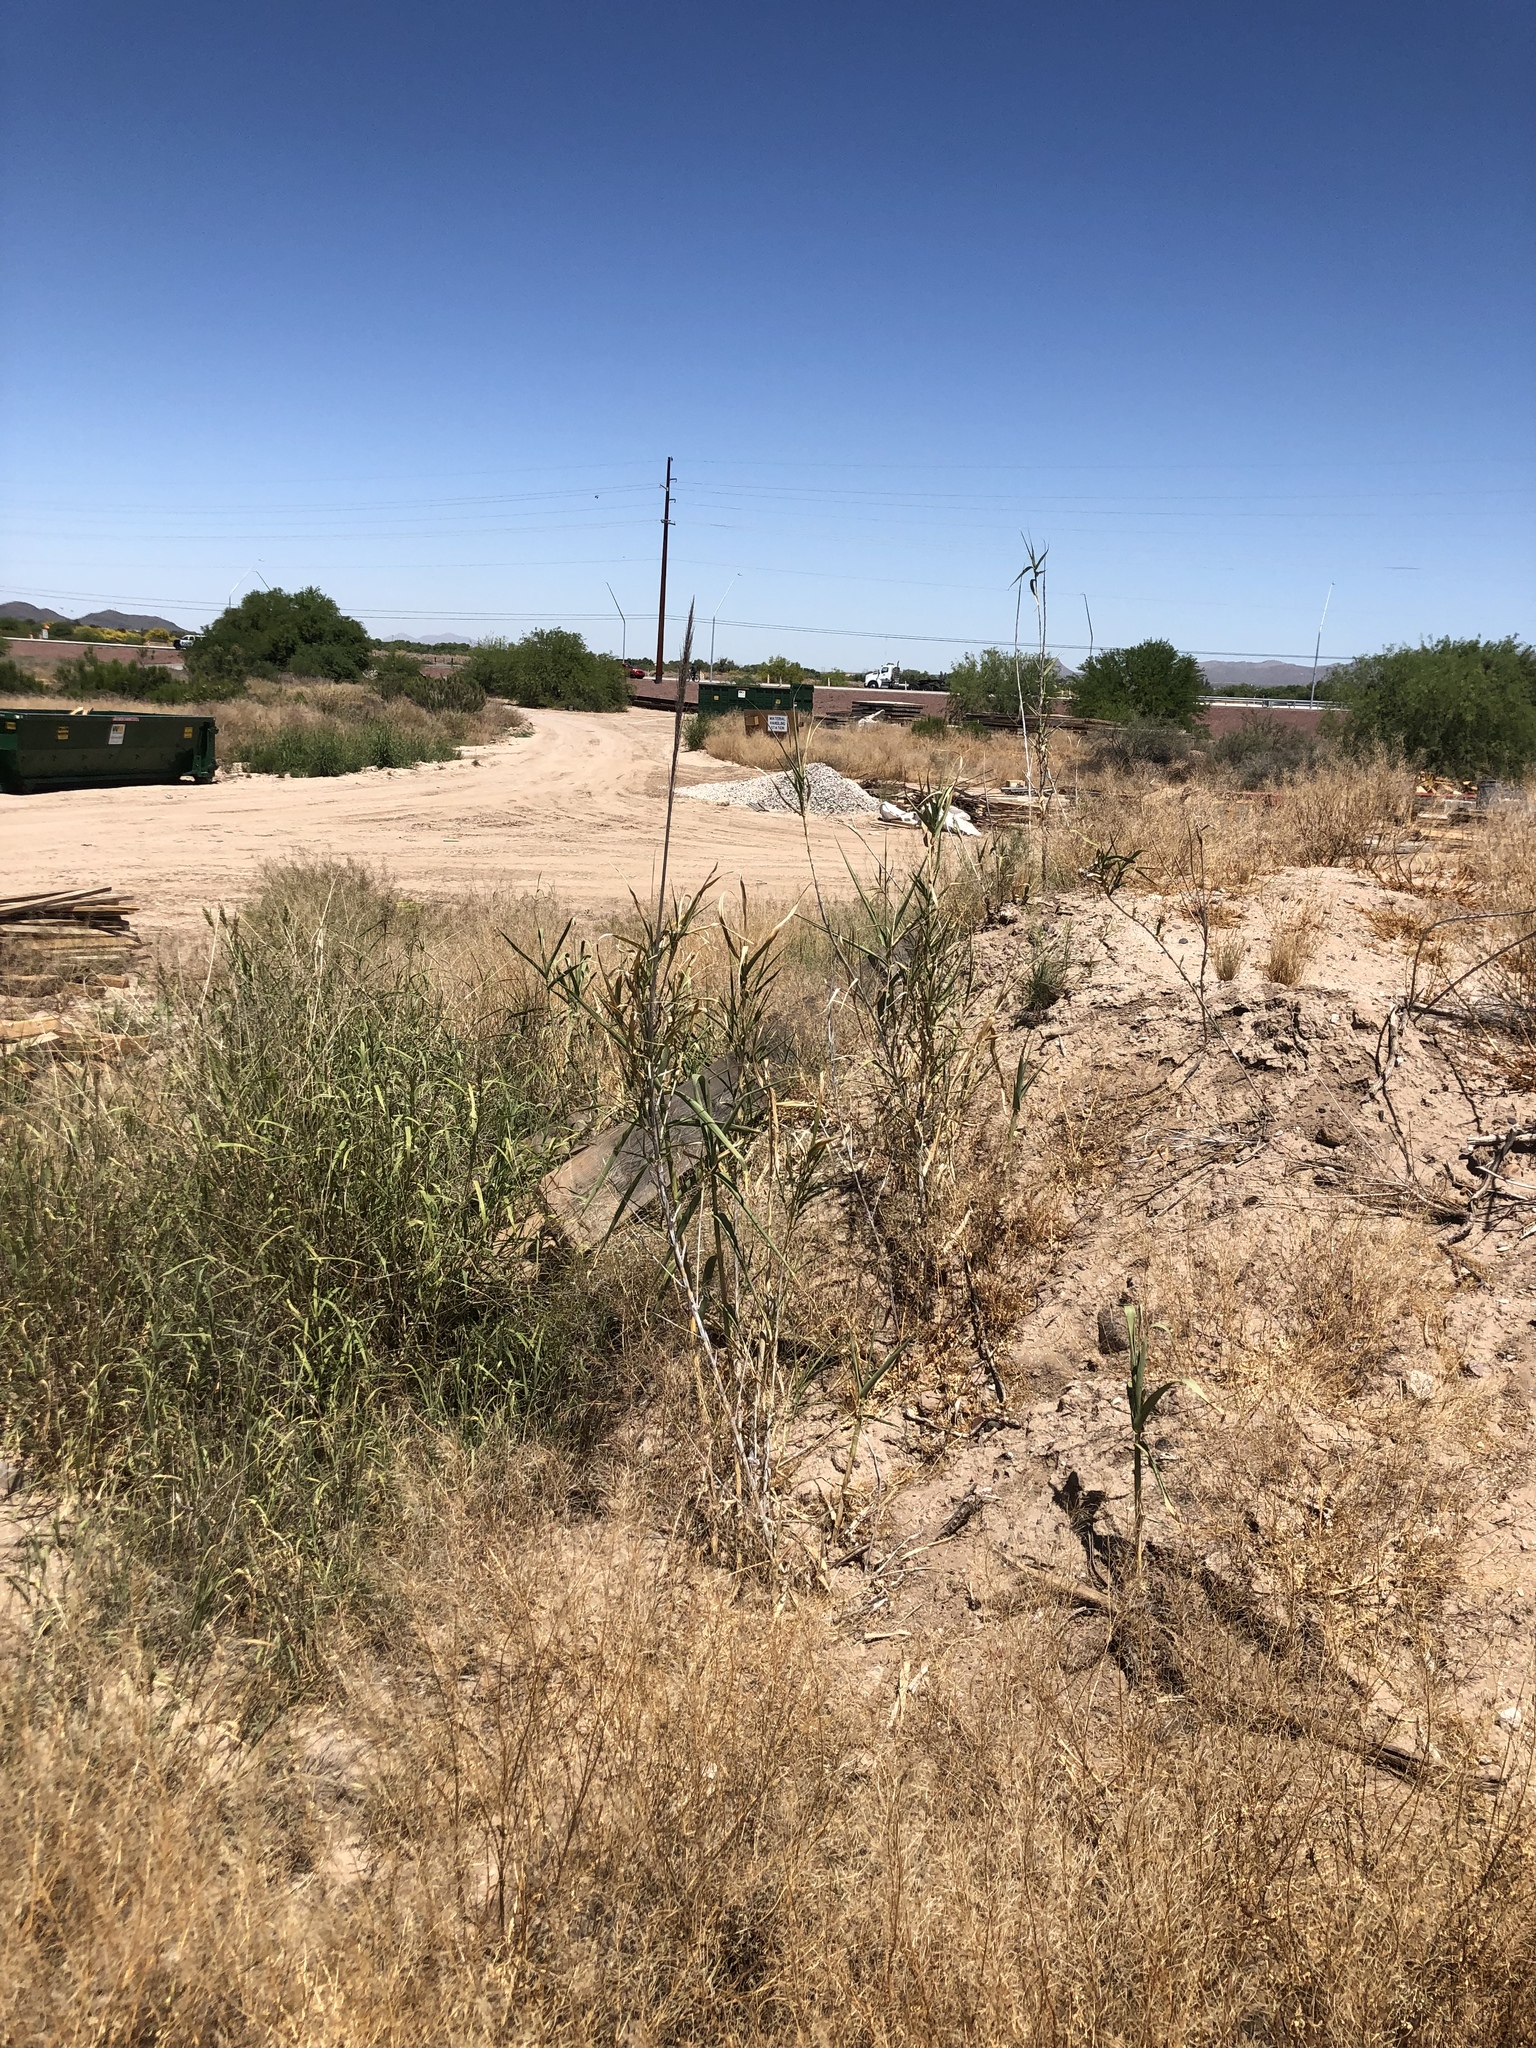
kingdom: Plantae
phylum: Tracheophyta
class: Liliopsida
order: Poales
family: Poaceae
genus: Arundo
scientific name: Arundo donax
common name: Giant reed
